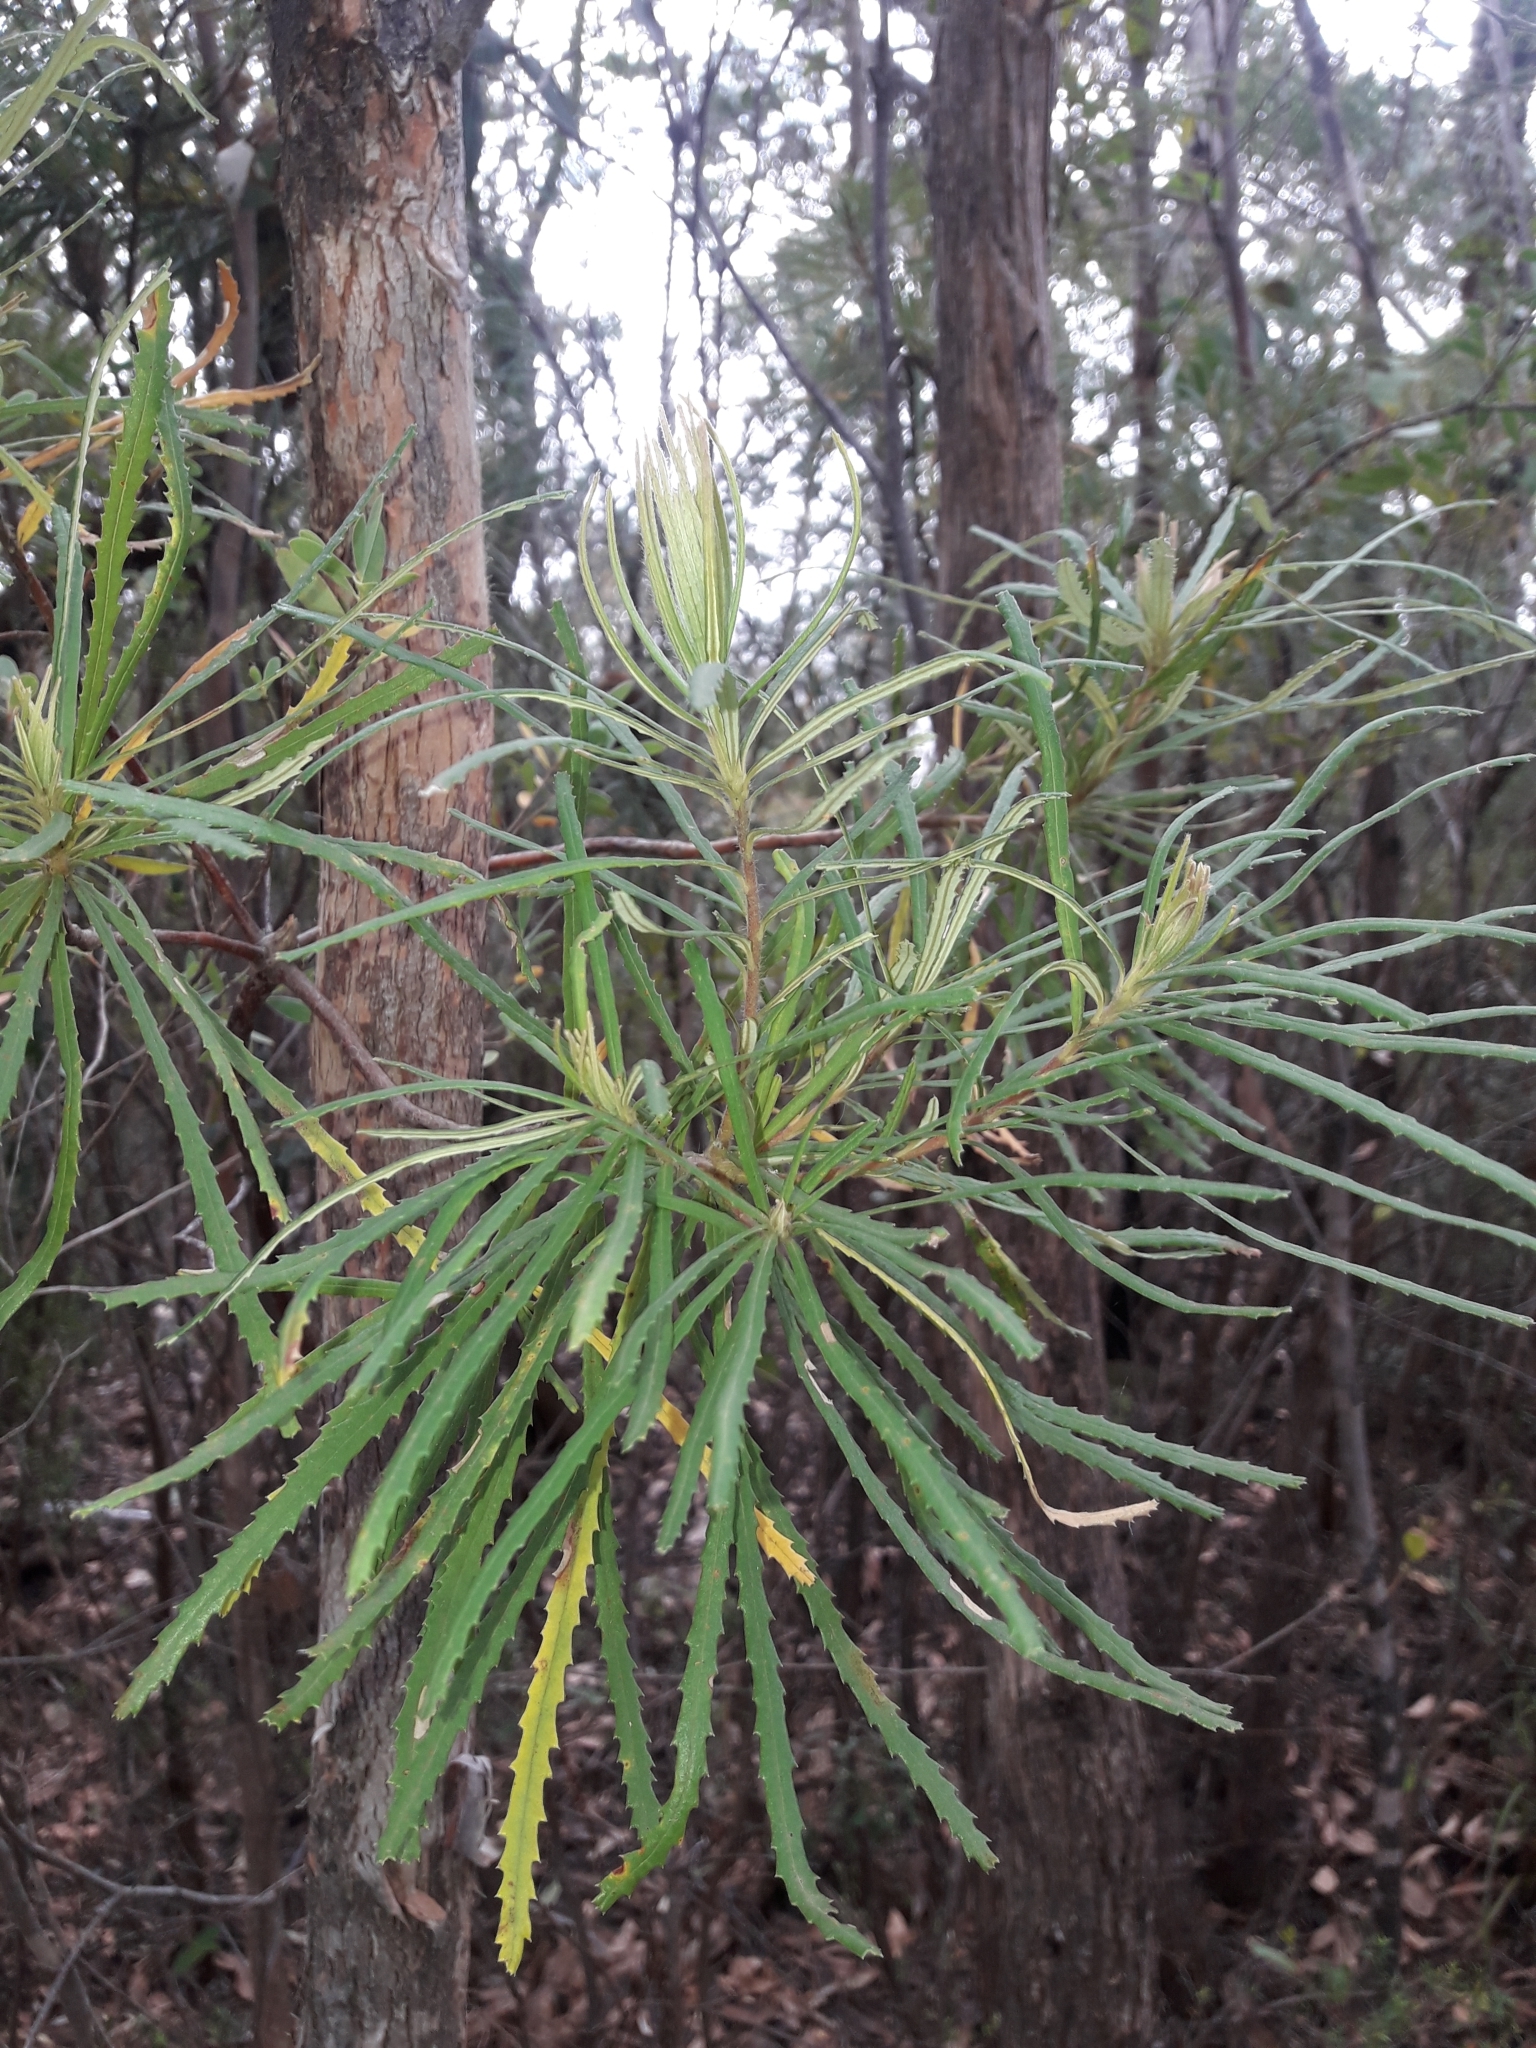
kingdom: Plantae
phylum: Tracheophyta
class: Magnoliopsida
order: Proteales
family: Proteaceae
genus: Banksia
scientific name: Banksia spinulosa
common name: Hairpin banksia
